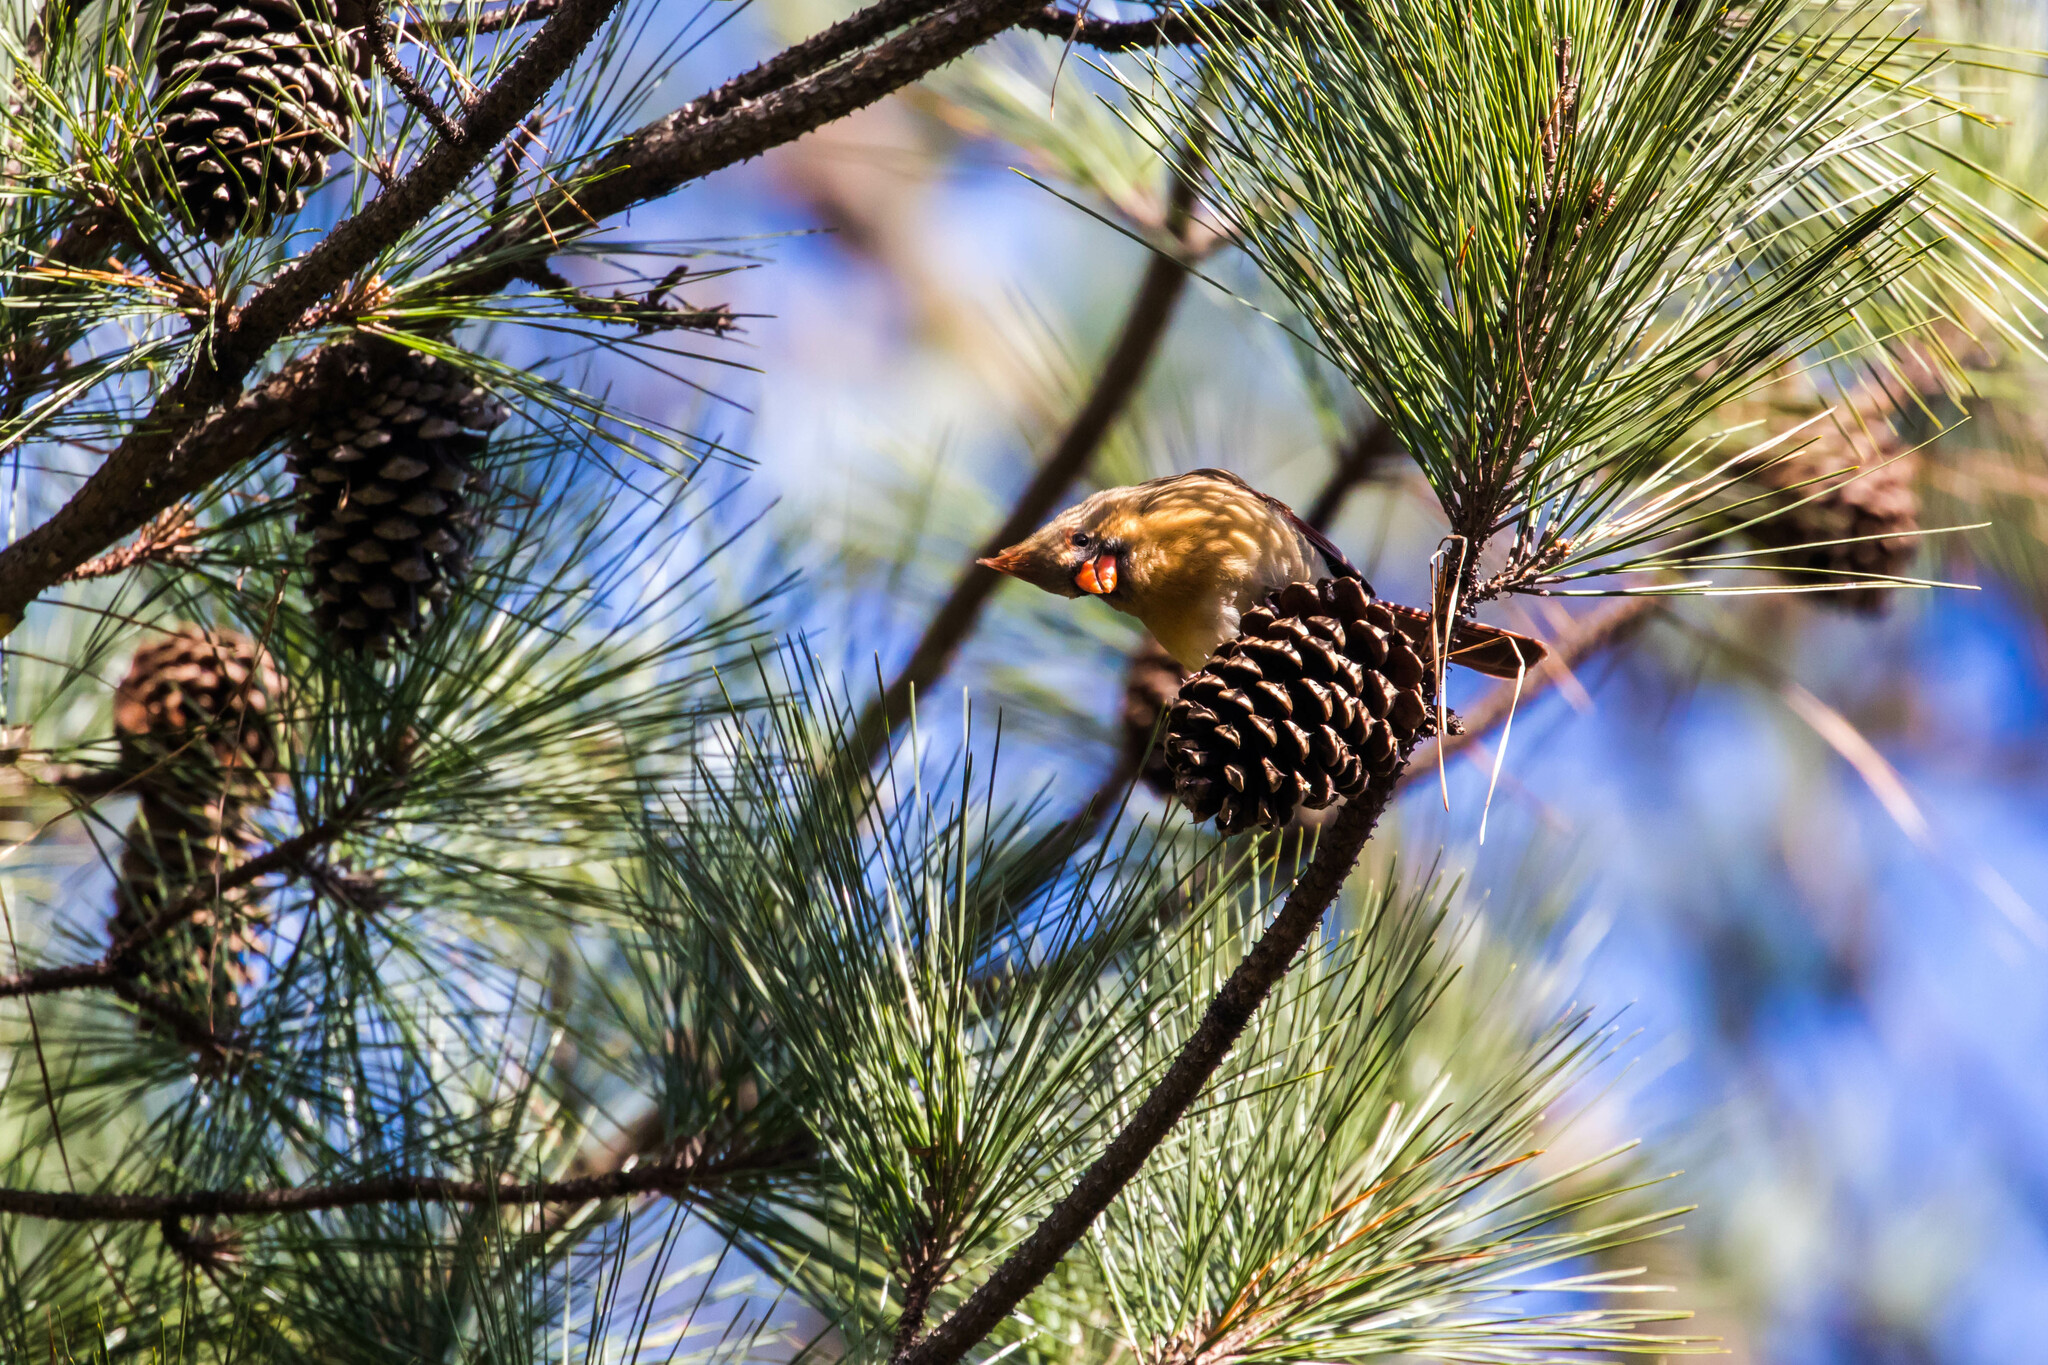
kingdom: Animalia
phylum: Chordata
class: Aves
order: Passeriformes
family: Cardinalidae
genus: Cardinalis
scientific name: Cardinalis cardinalis
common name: Northern cardinal
